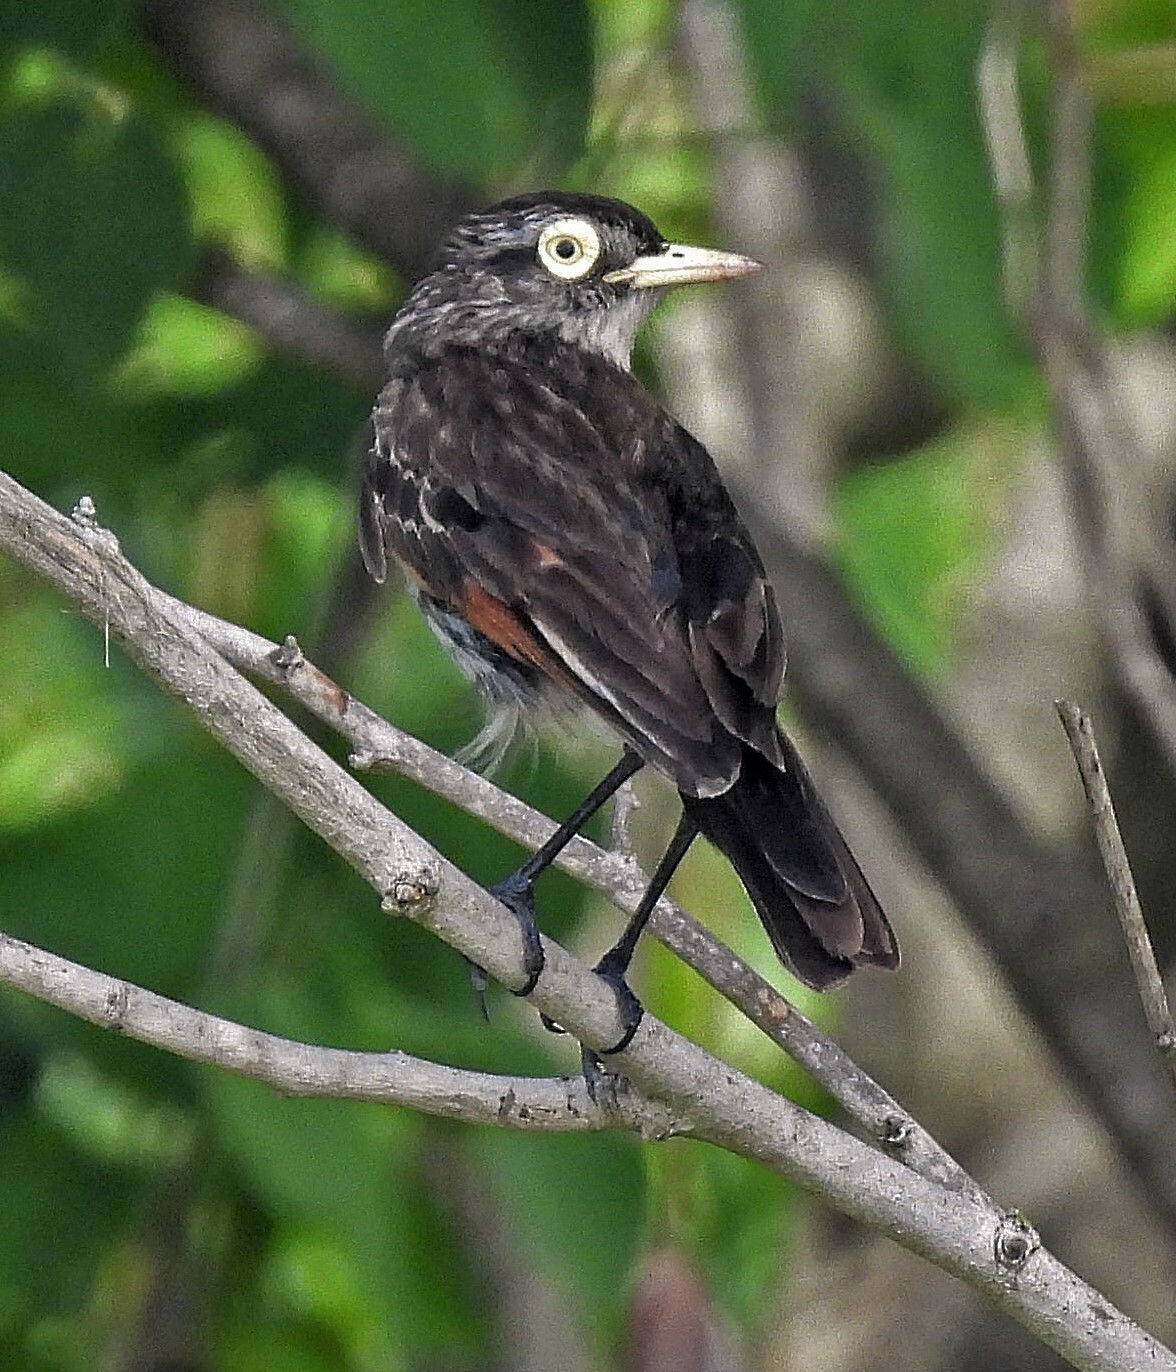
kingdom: Animalia
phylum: Chordata
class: Aves
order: Passeriformes
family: Tyrannidae
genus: Hymenops
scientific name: Hymenops perspicillatus
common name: Spectacled tyrant
